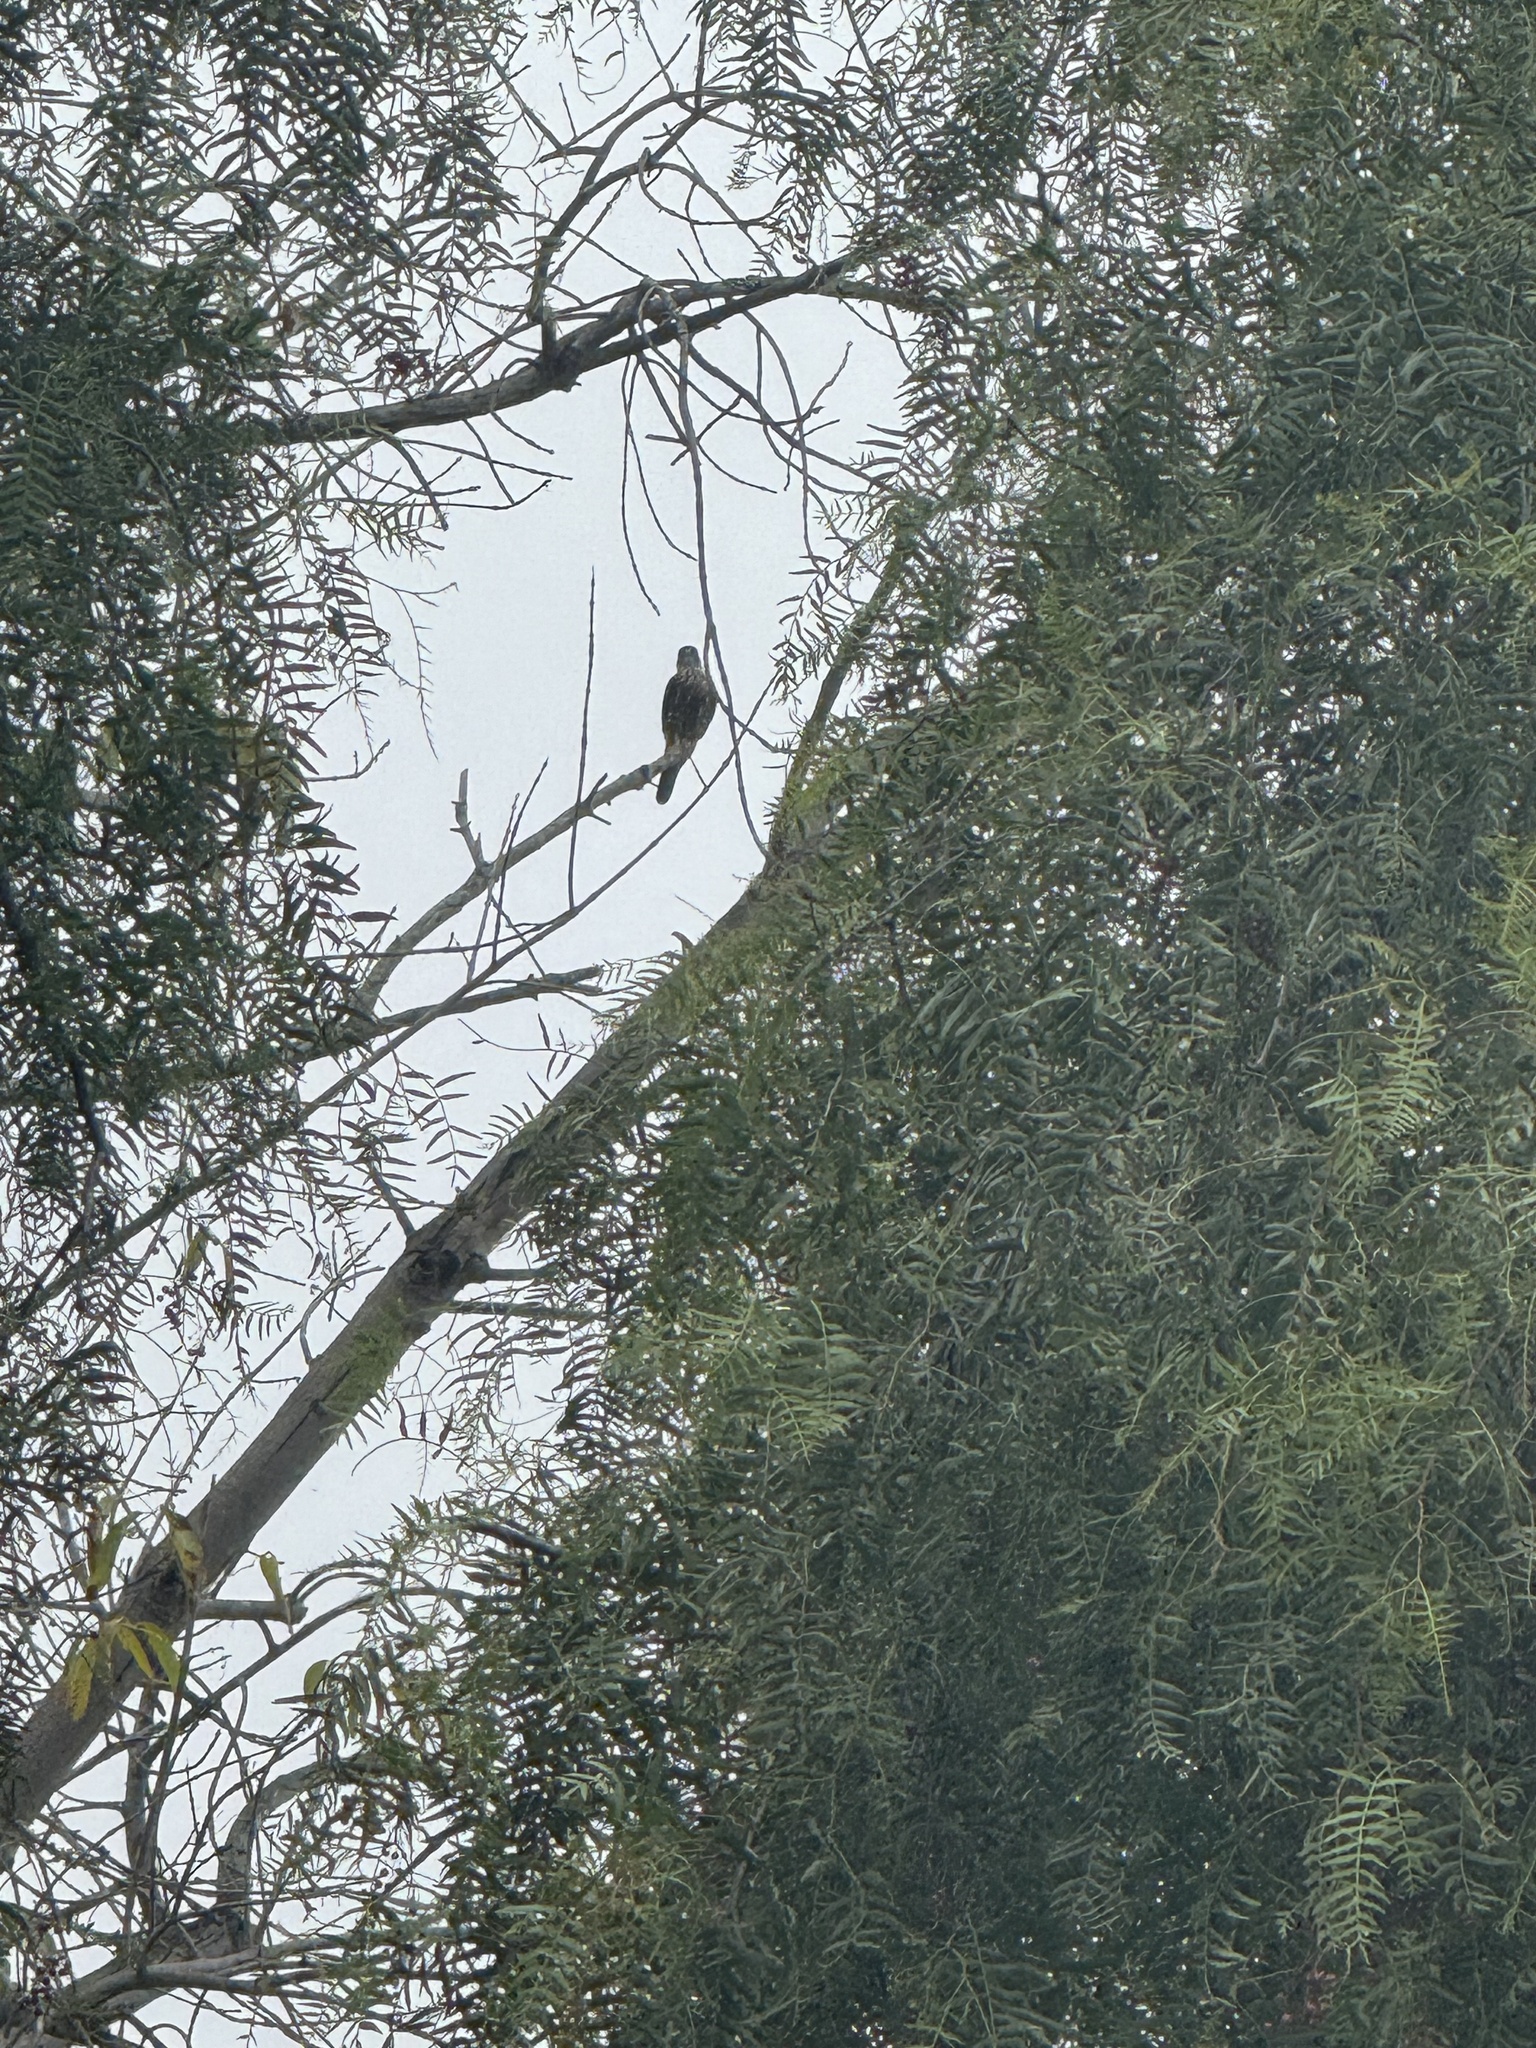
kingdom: Animalia
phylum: Chordata
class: Aves
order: Falconiformes
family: Falconidae
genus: Falco
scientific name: Falco columbarius
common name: Merlin
